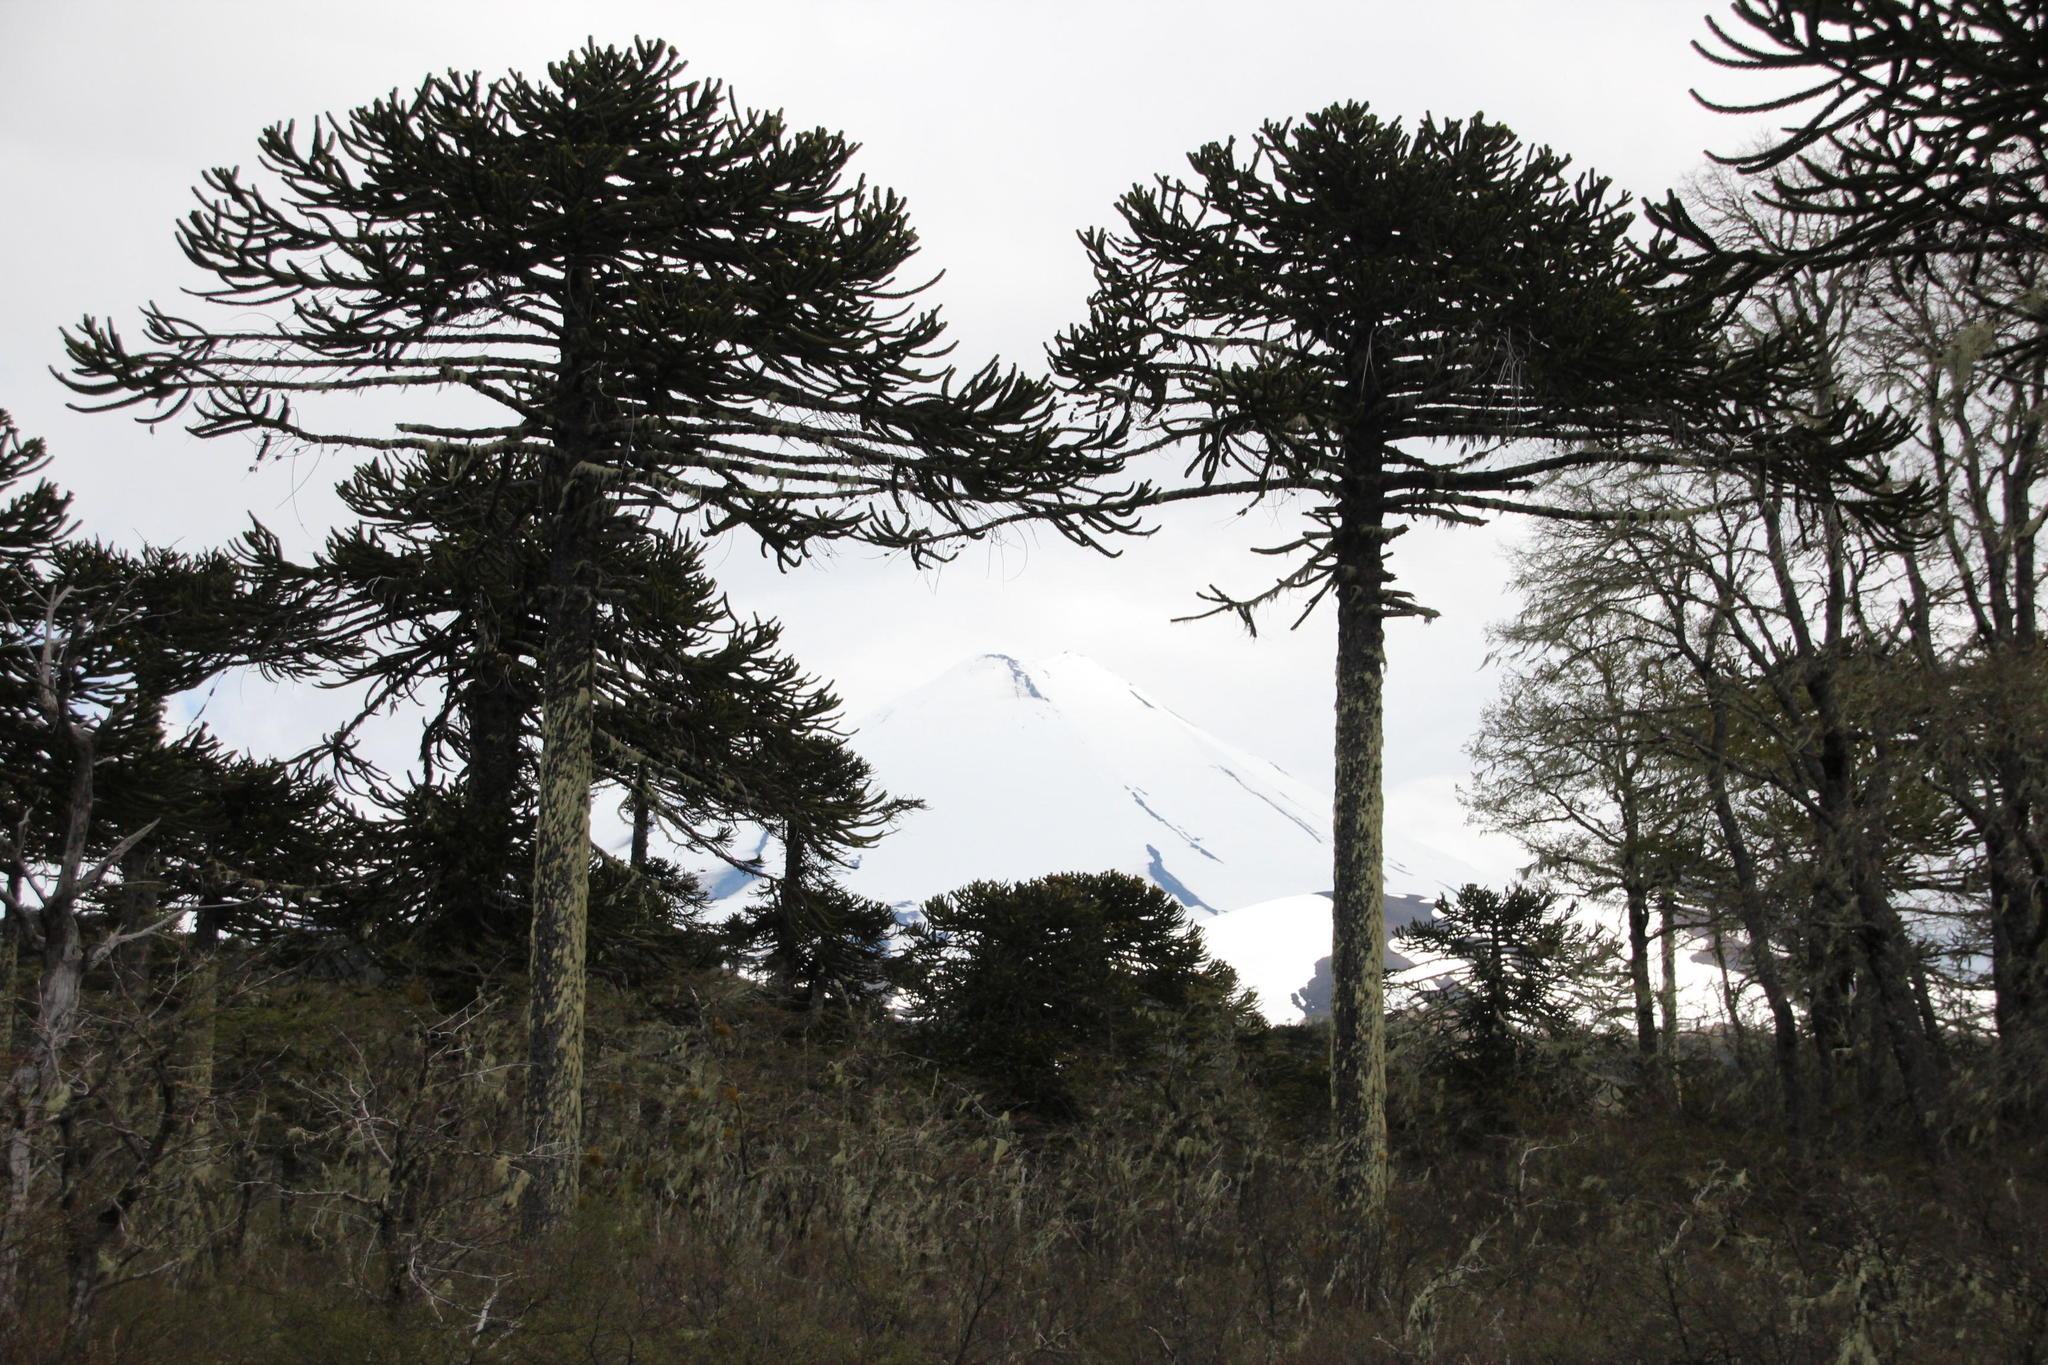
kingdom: Plantae
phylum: Tracheophyta
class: Pinopsida
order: Pinales
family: Araucariaceae
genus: Araucaria
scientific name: Araucaria araucana
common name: Monkey-puzzle
